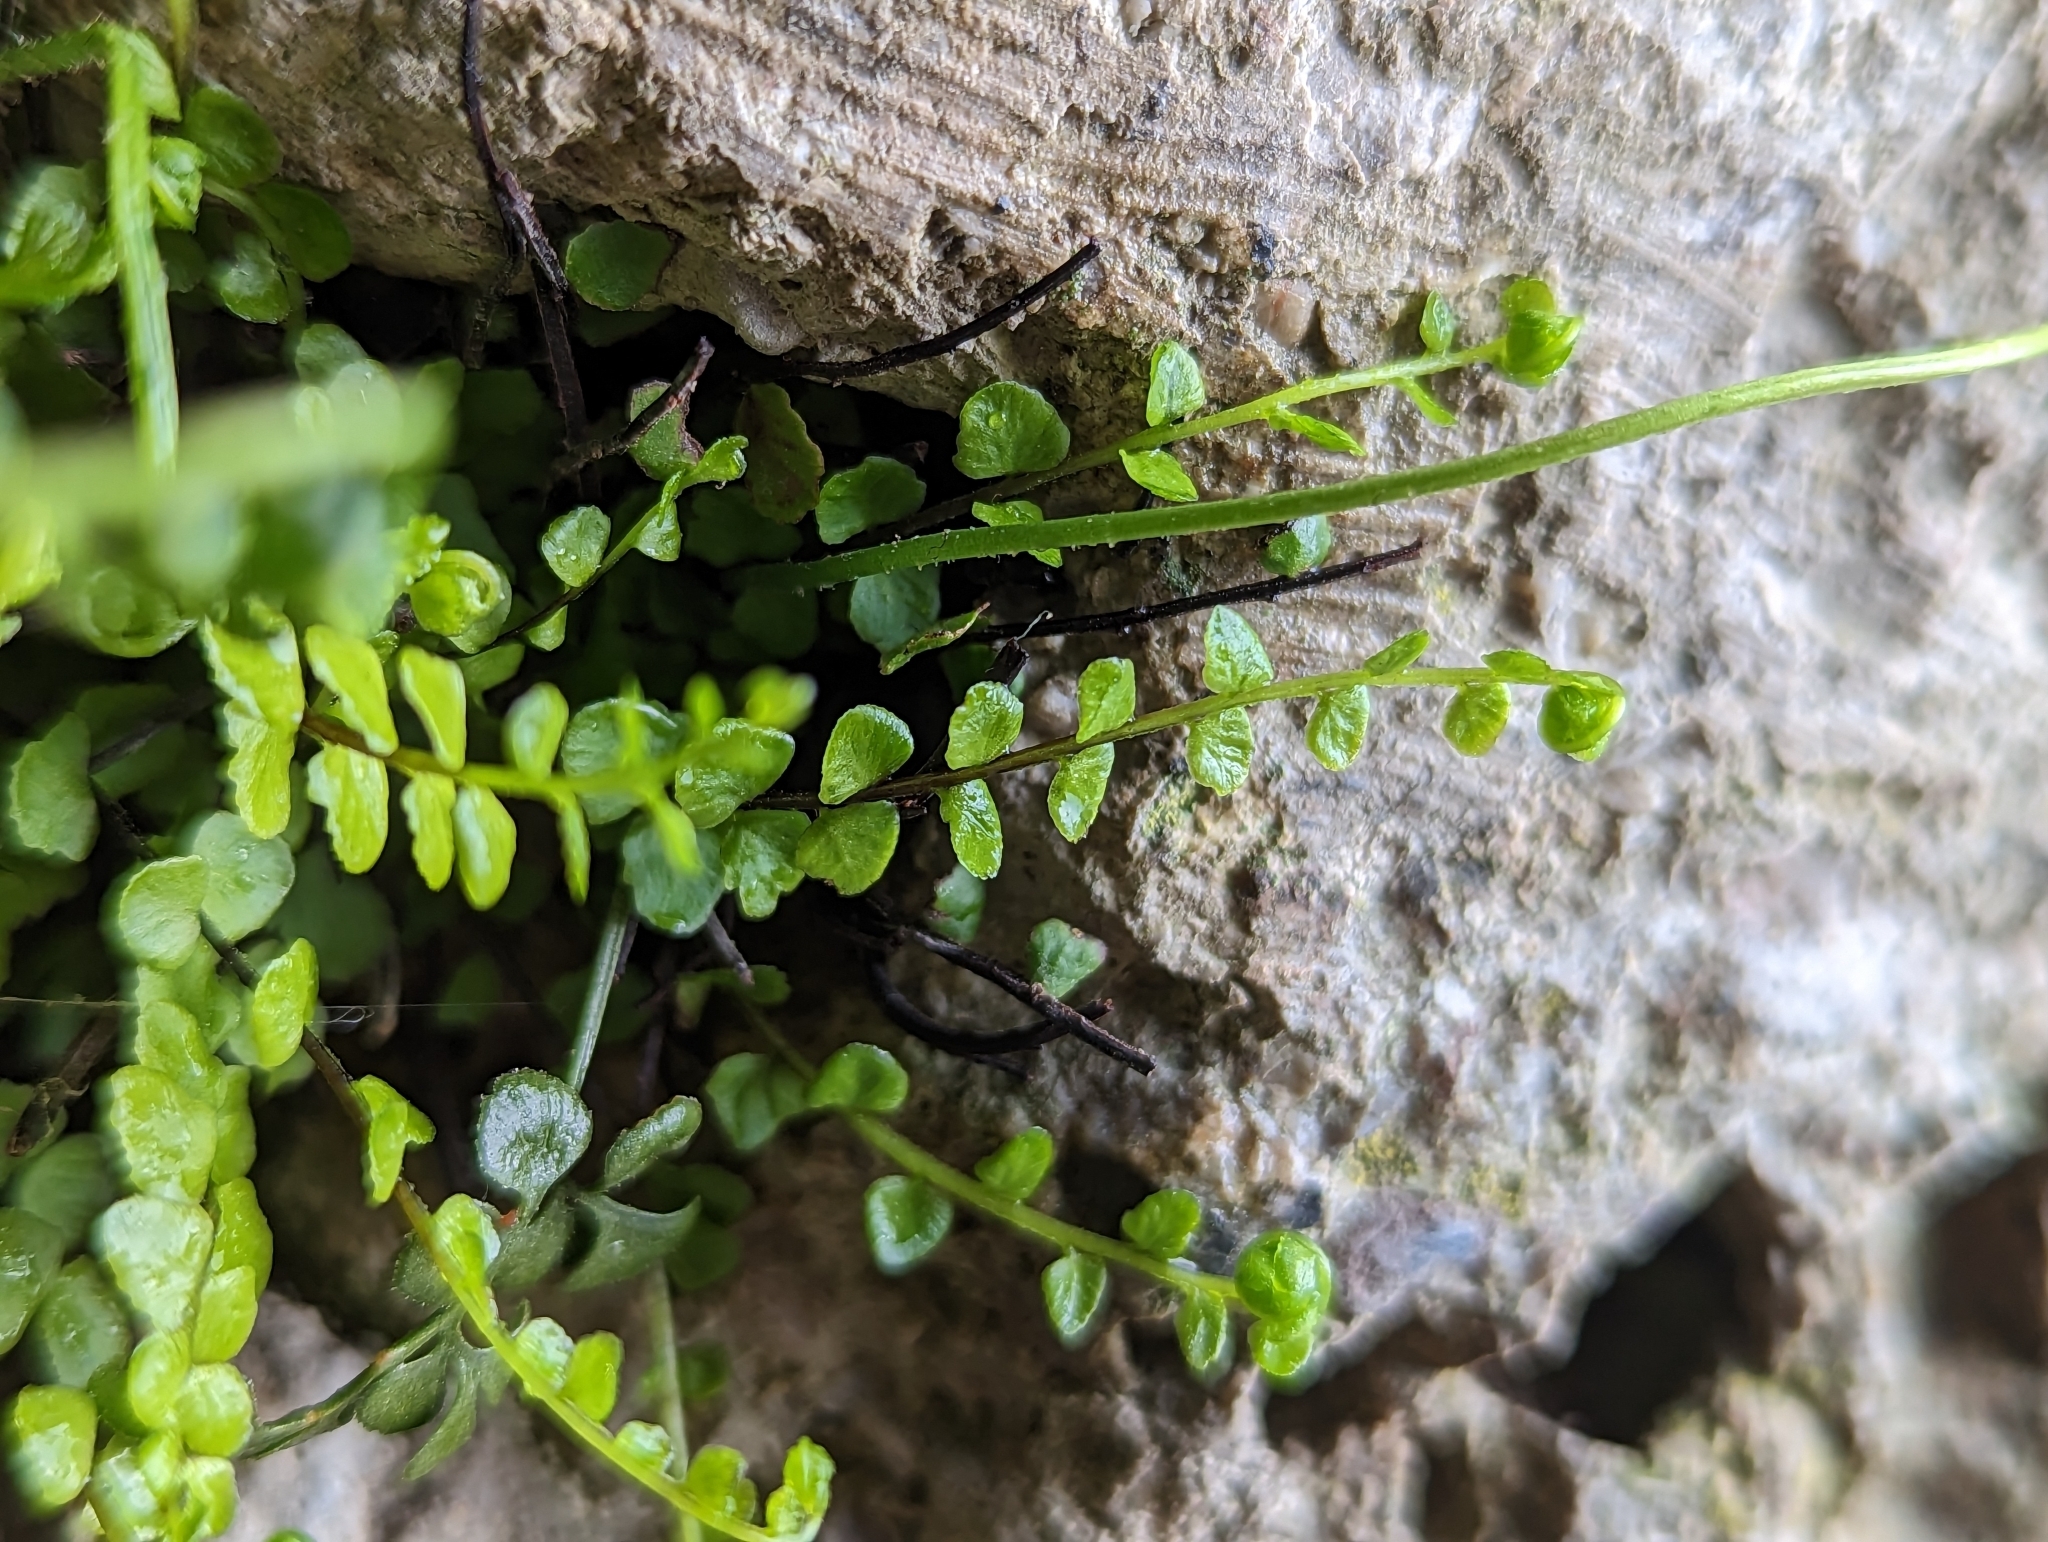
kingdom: Plantae
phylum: Tracheophyta
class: Polypodiopsida
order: Polypodiales
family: Aspleniaceae
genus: Asplenium
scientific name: Asplenium trichomanes
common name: Maidenhair spleenwort
